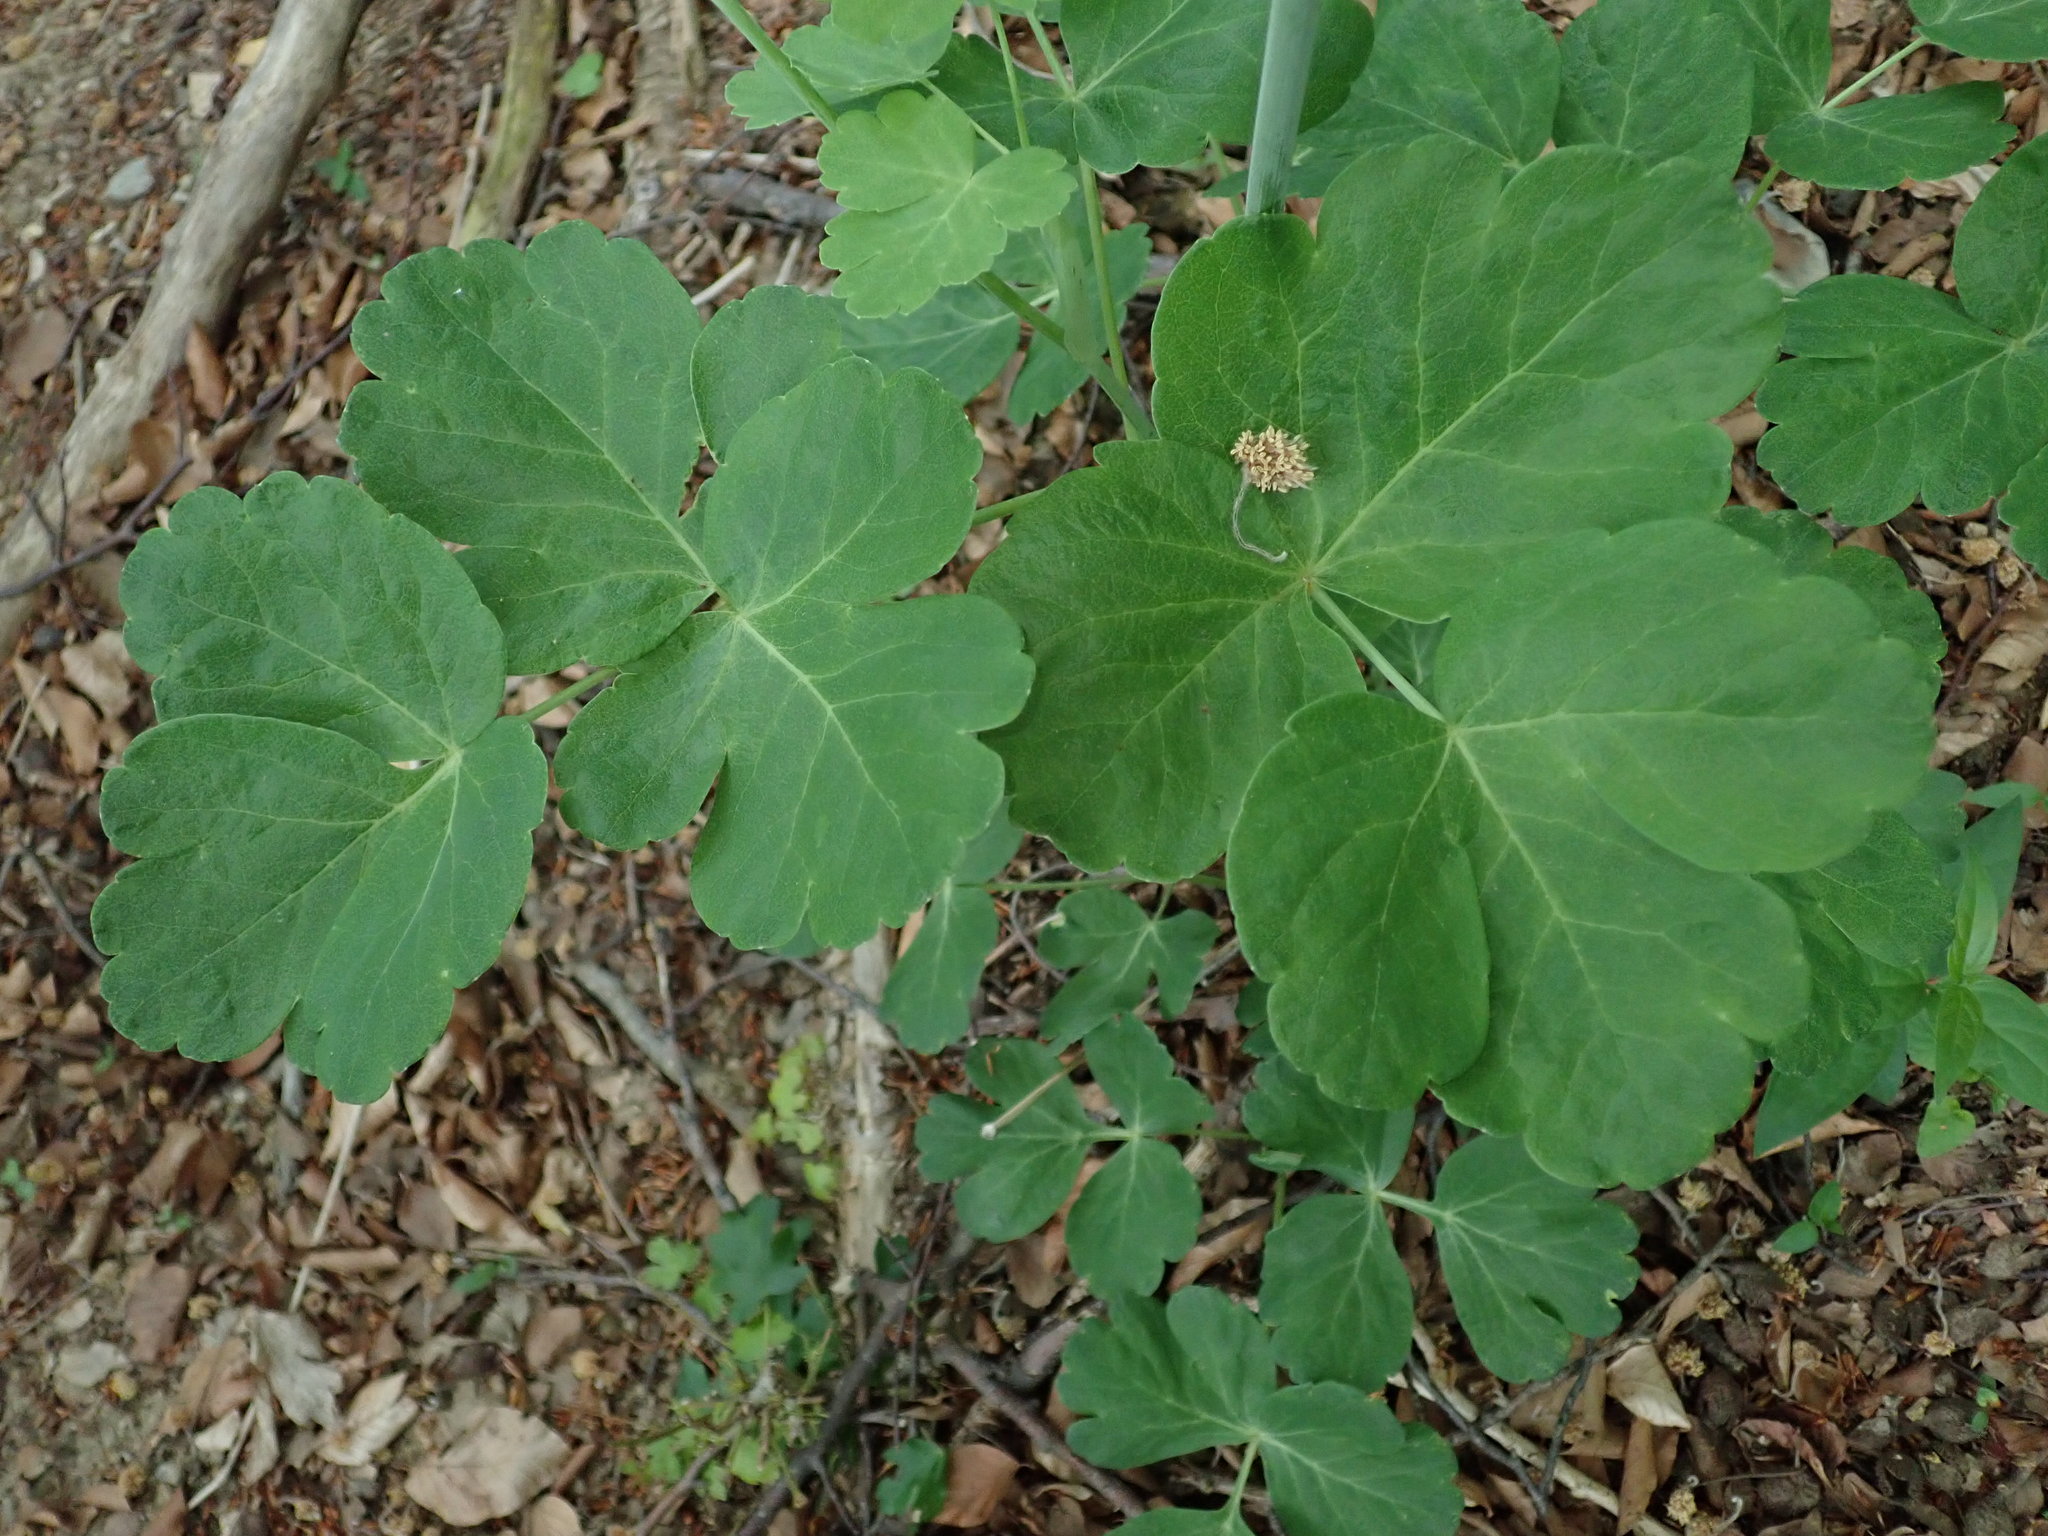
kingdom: Plantae
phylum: Tracheophyta
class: Magnoliopsida
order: Apiales
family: Apiaceae
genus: Laser
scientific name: Laser trilobum
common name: Laser
